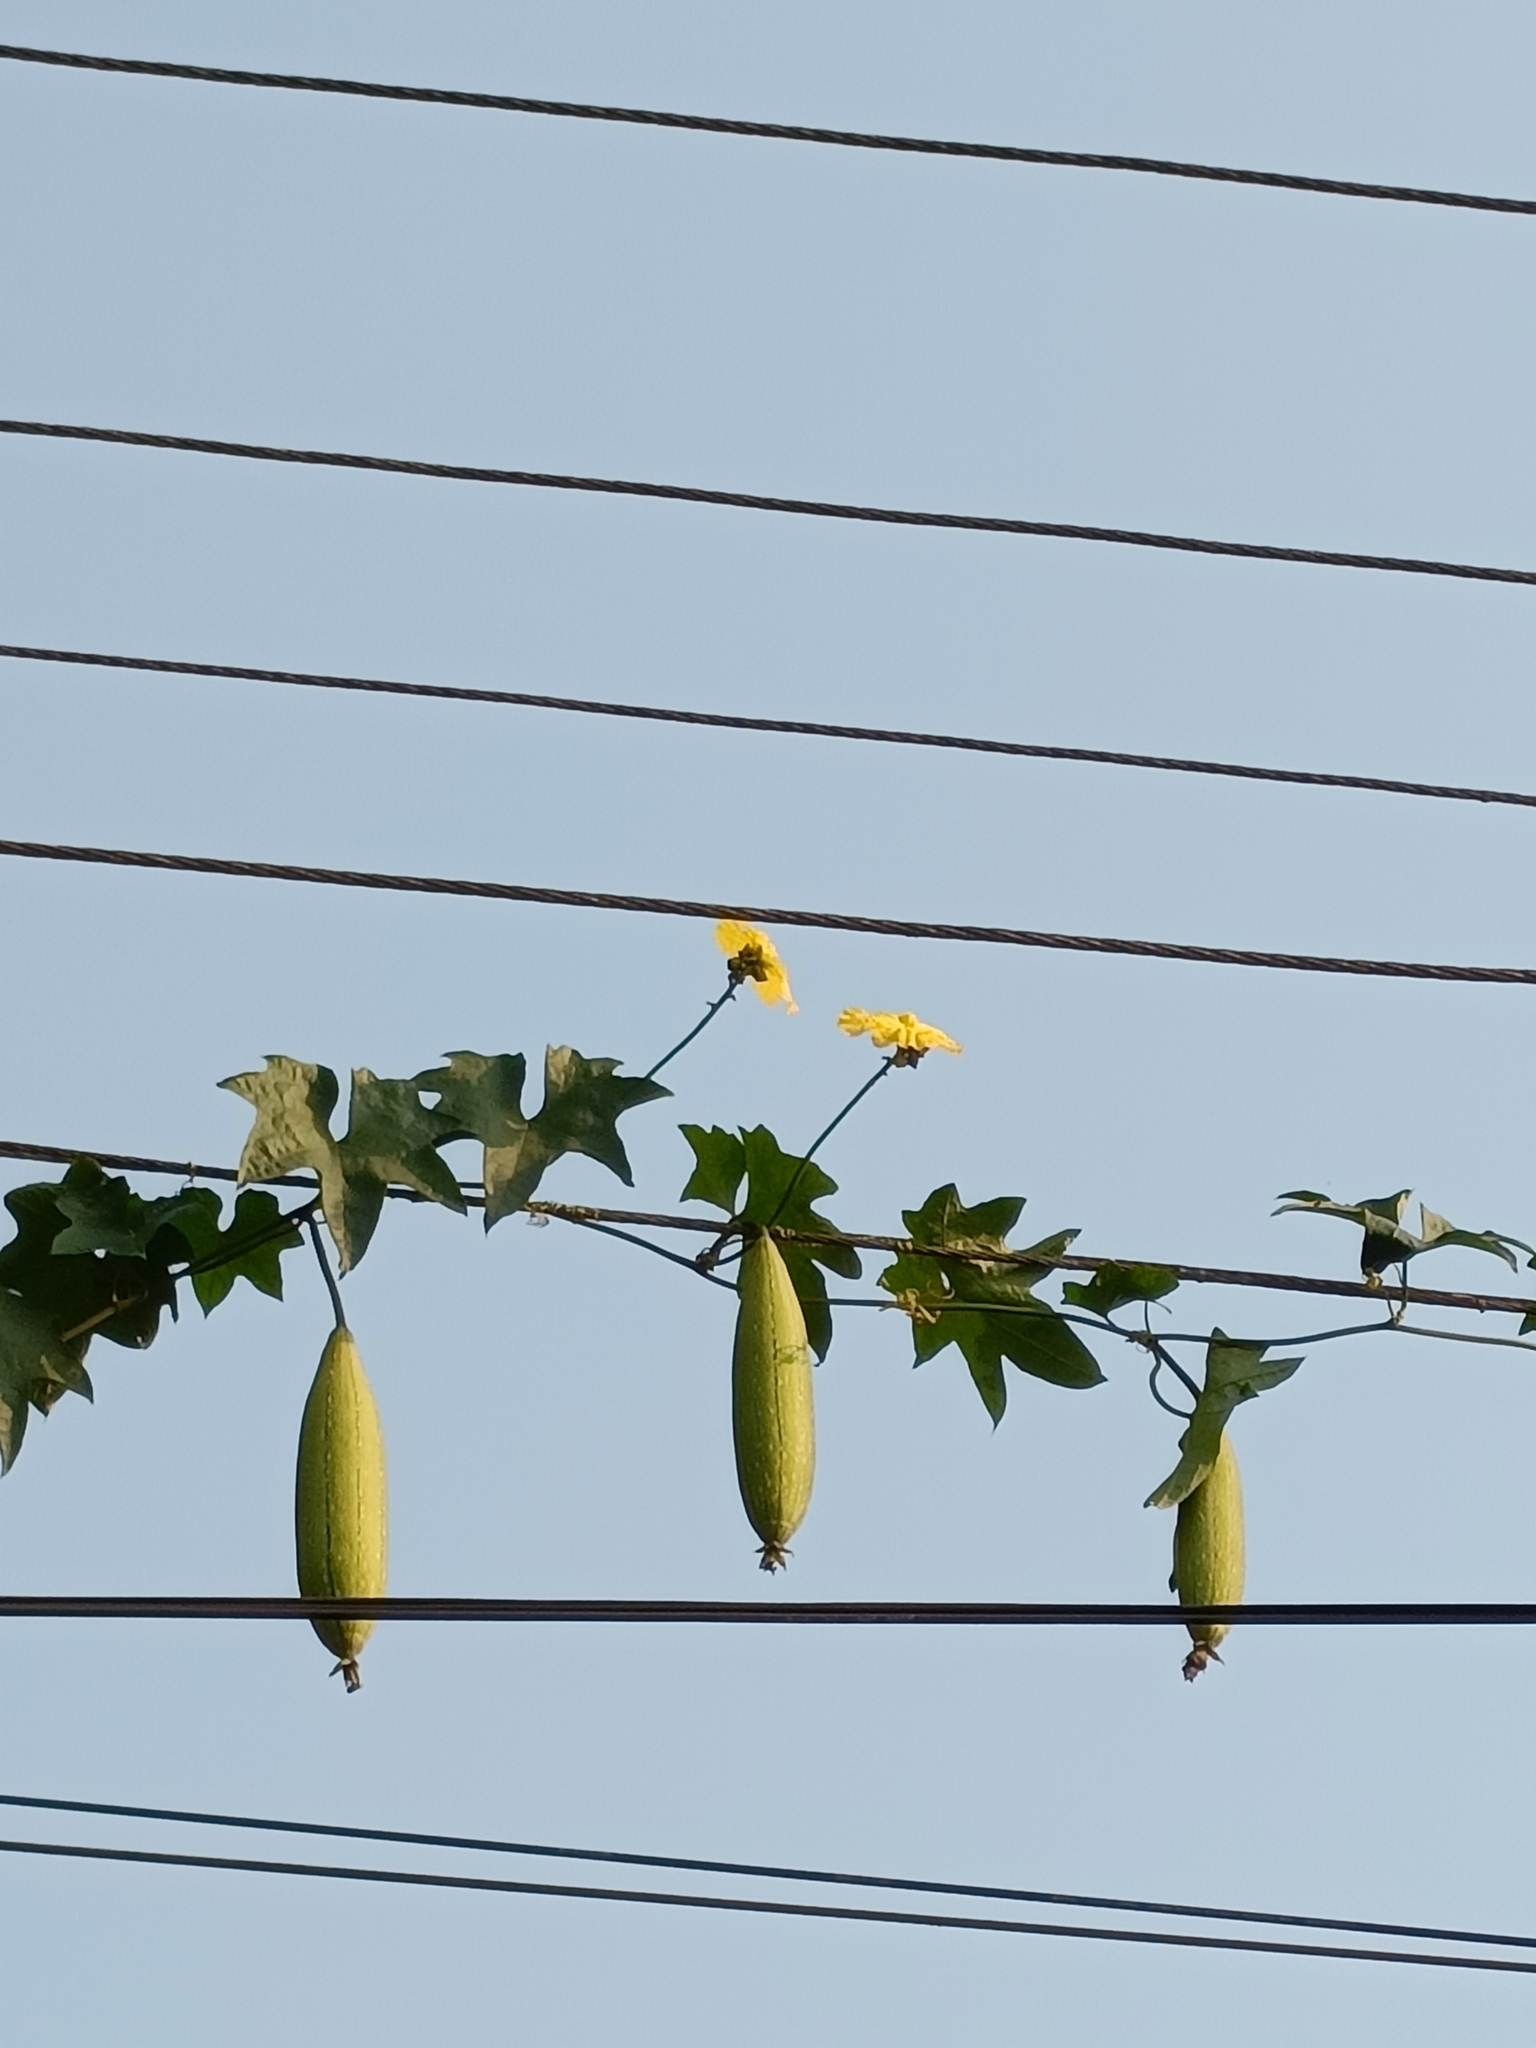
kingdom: Plantae
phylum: Tracheophyta
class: Magnoliopsida
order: Cucurbitales
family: Cucurbitaceae
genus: Luffa
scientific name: Luffa aegyptiaca
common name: Sponge gourd
